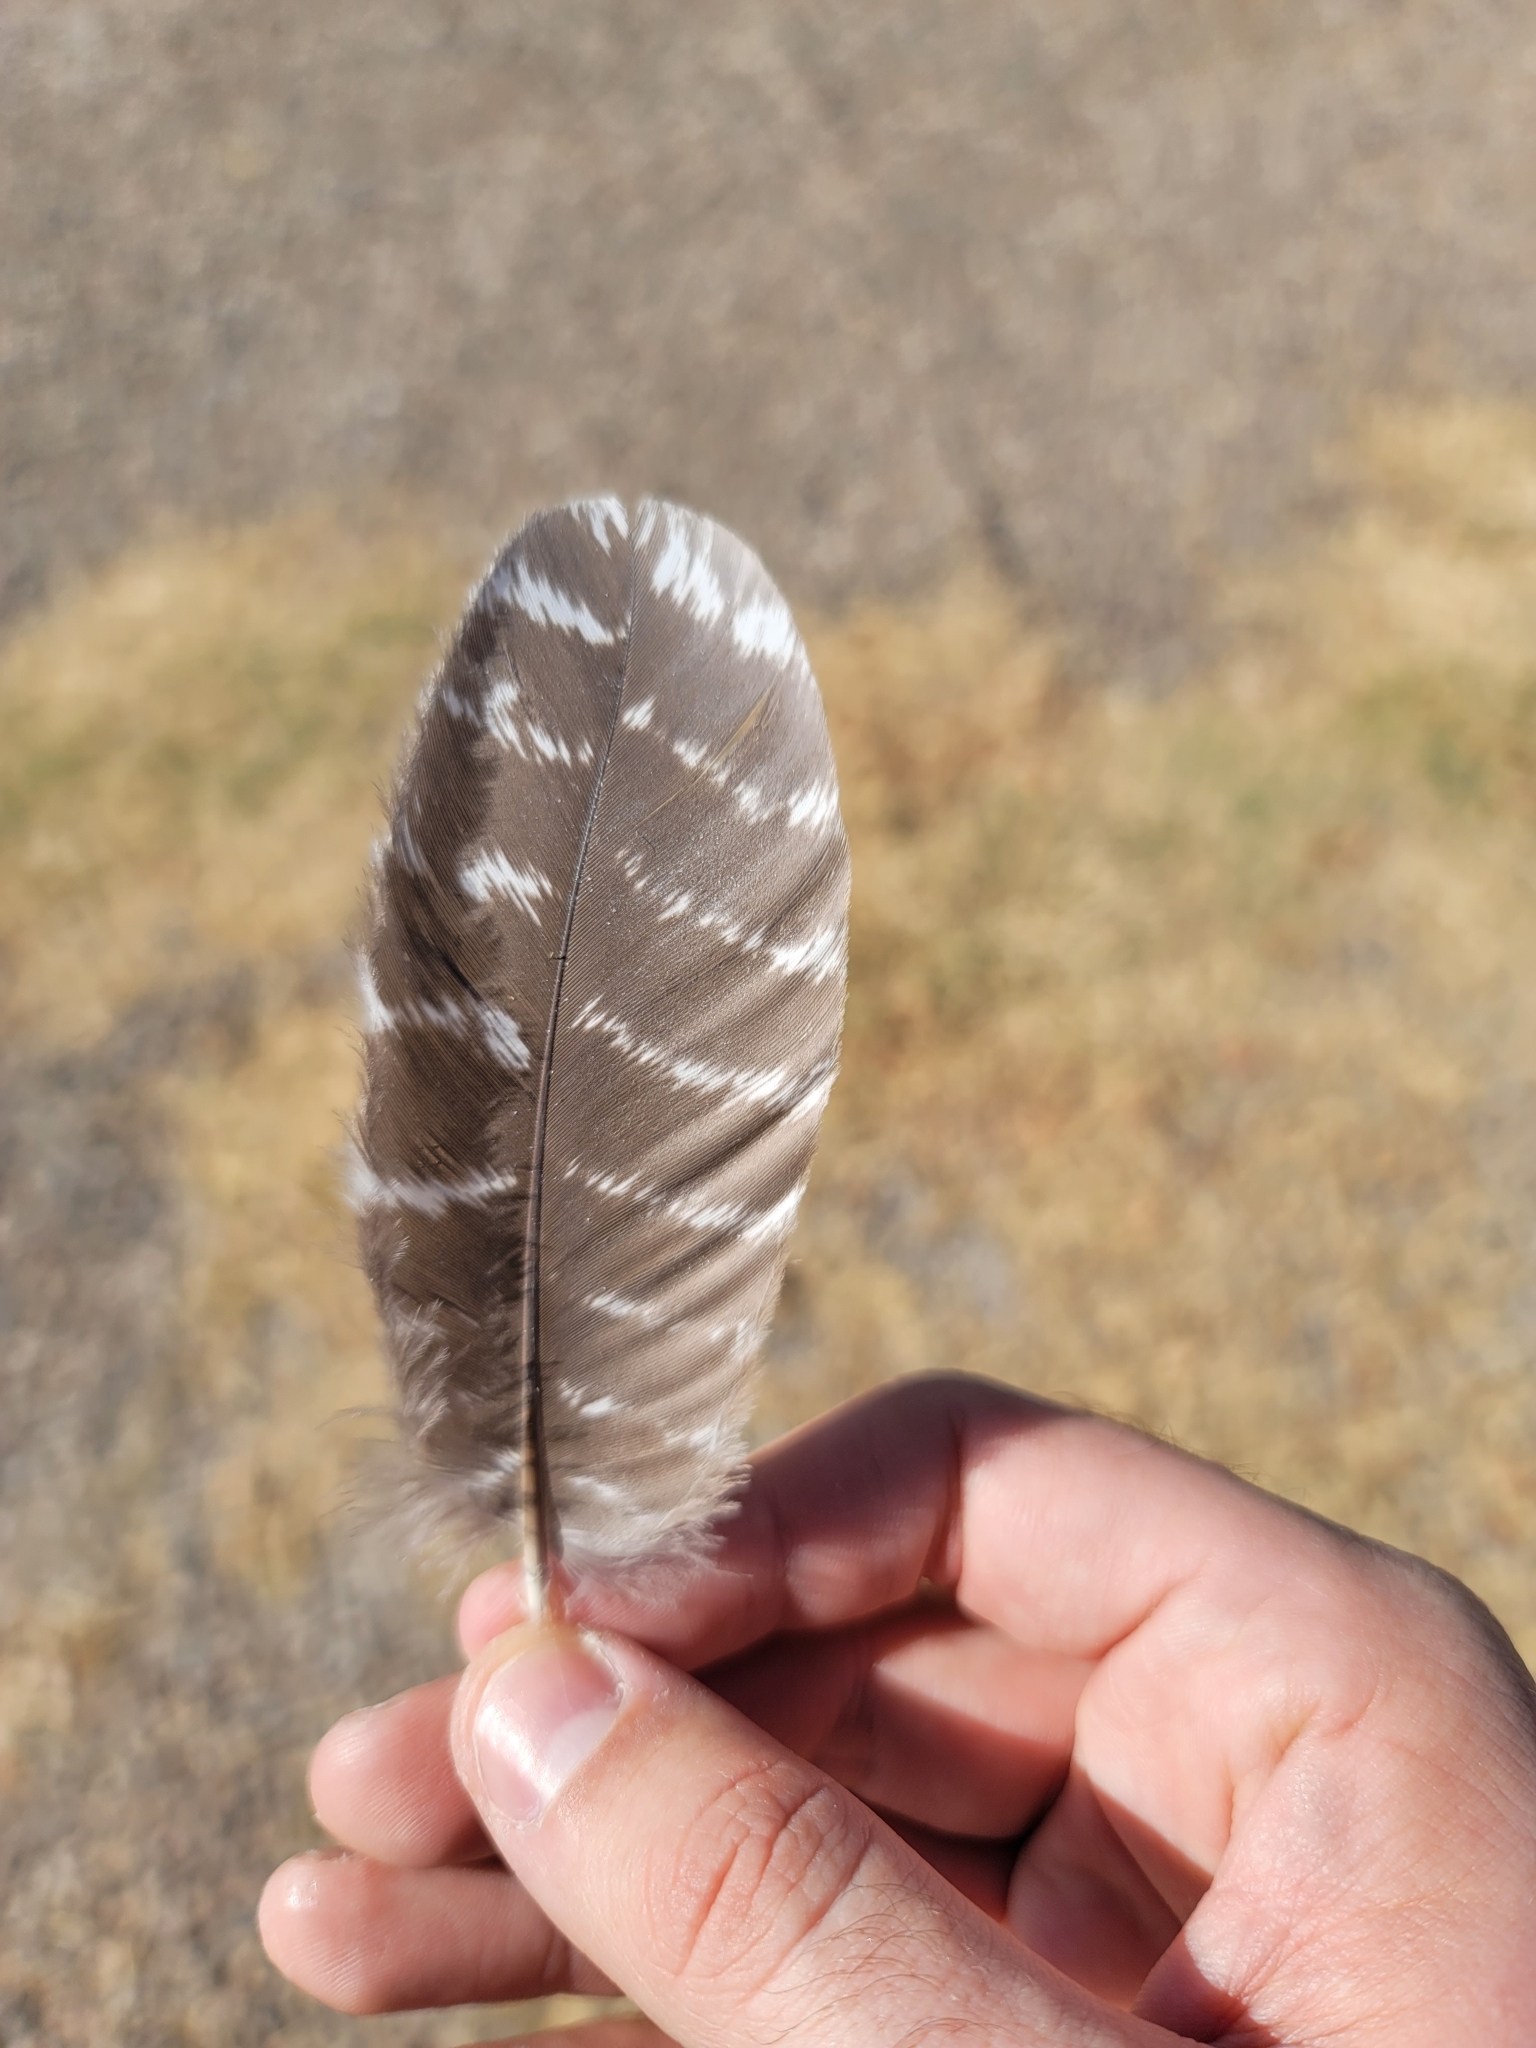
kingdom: Animalia
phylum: Chordata
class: Aves
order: Galliformes
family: Phasianidae
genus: Meleagris
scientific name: Meleagris gallopavo
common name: Wild turkey
